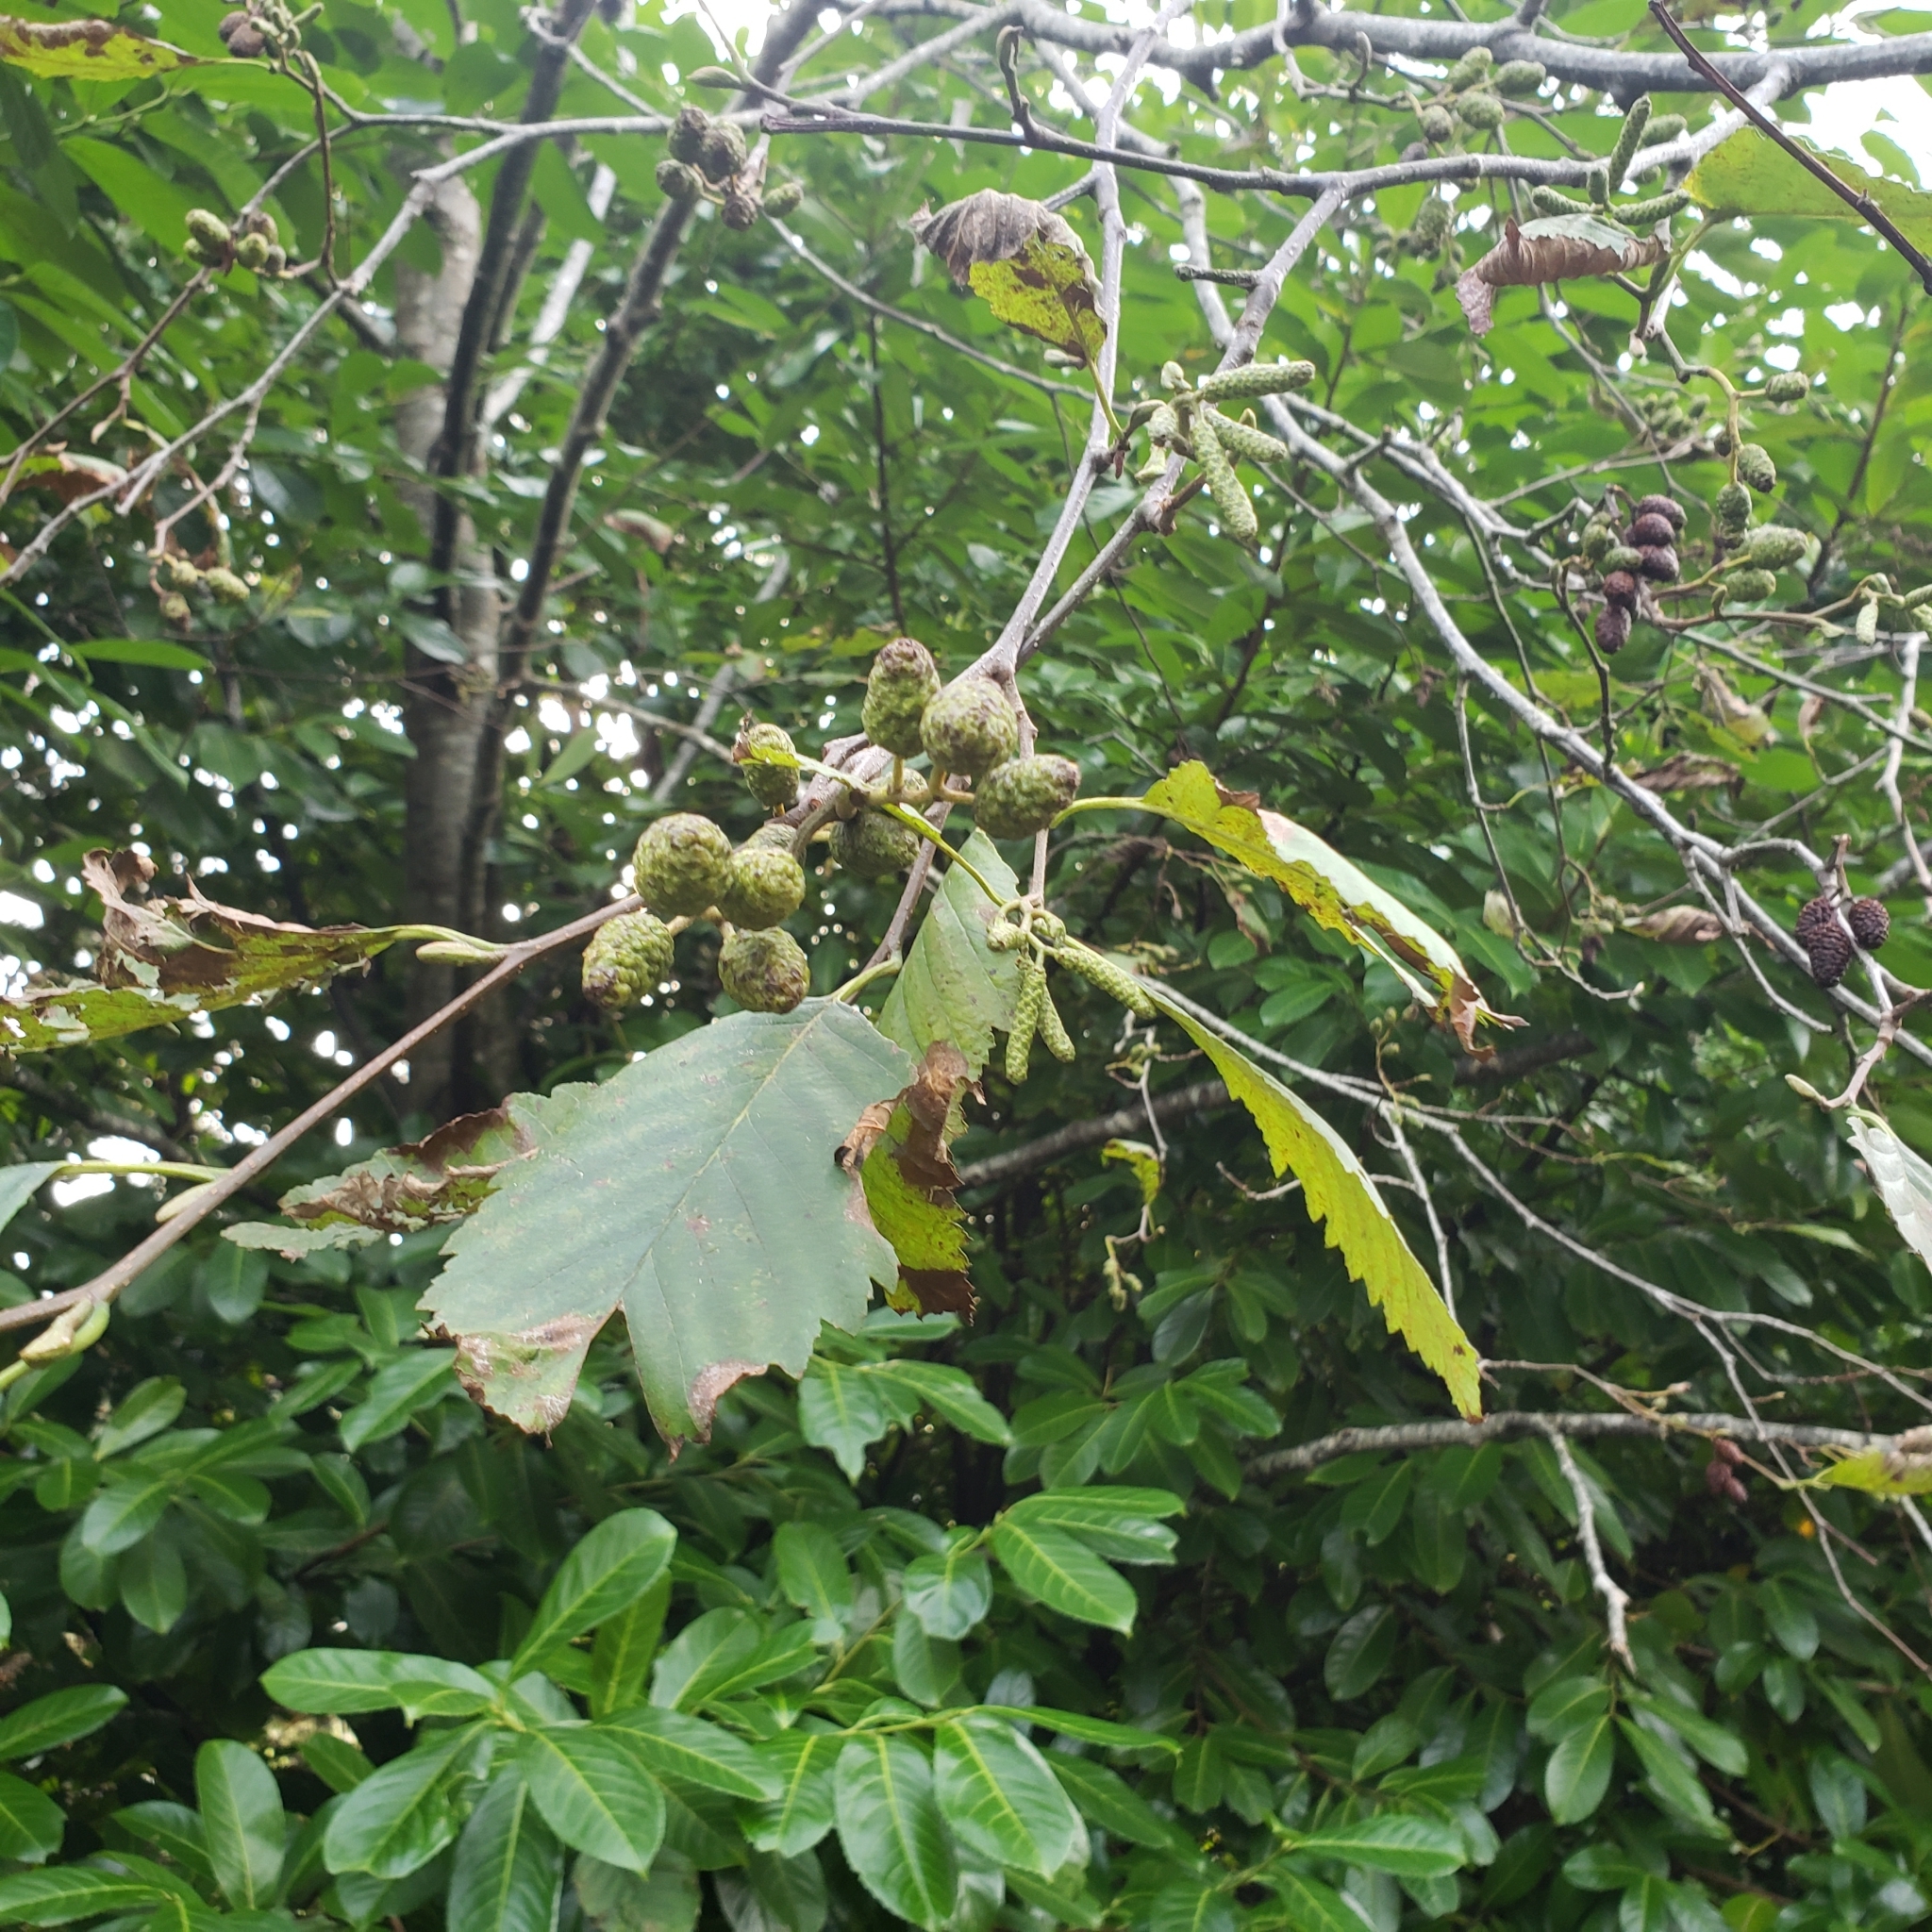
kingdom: Plantae
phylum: Tracheophyta
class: Magnoliopsida
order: Fagales
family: Betulaceae
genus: Alnus
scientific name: Alnus rubra
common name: Red alder
